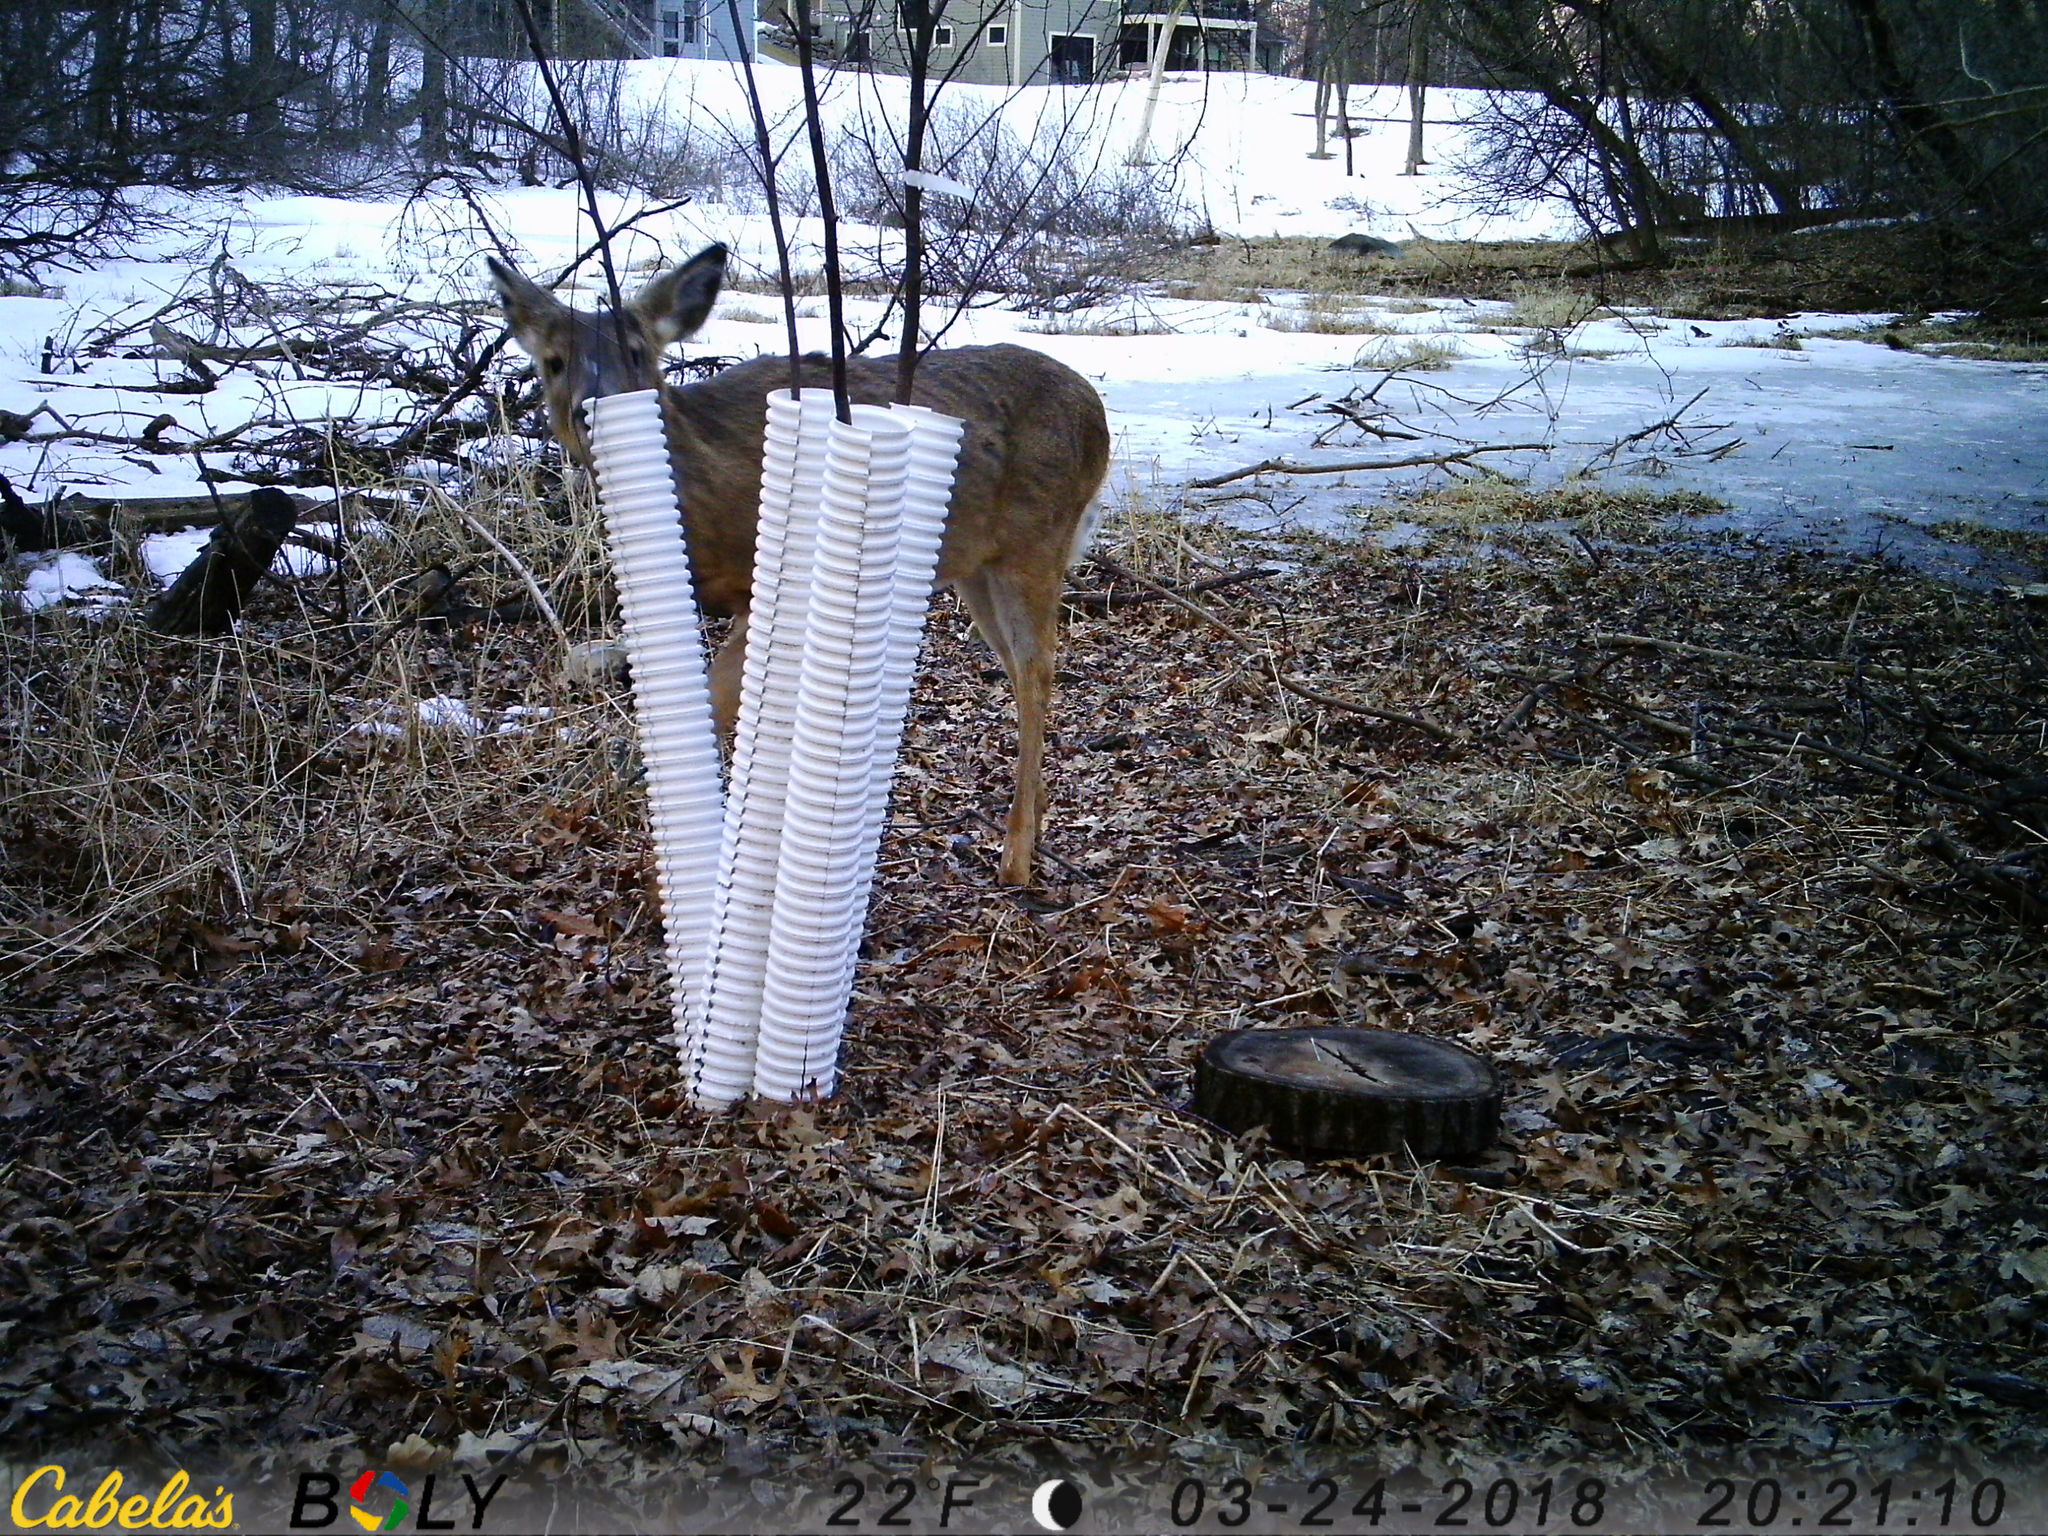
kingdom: Animalia
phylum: Chordata
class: Mammalia
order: Artiodactyla
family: Cervidae
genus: Odocoileus
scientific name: Odocoileus virginianus
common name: White-tailed deer
